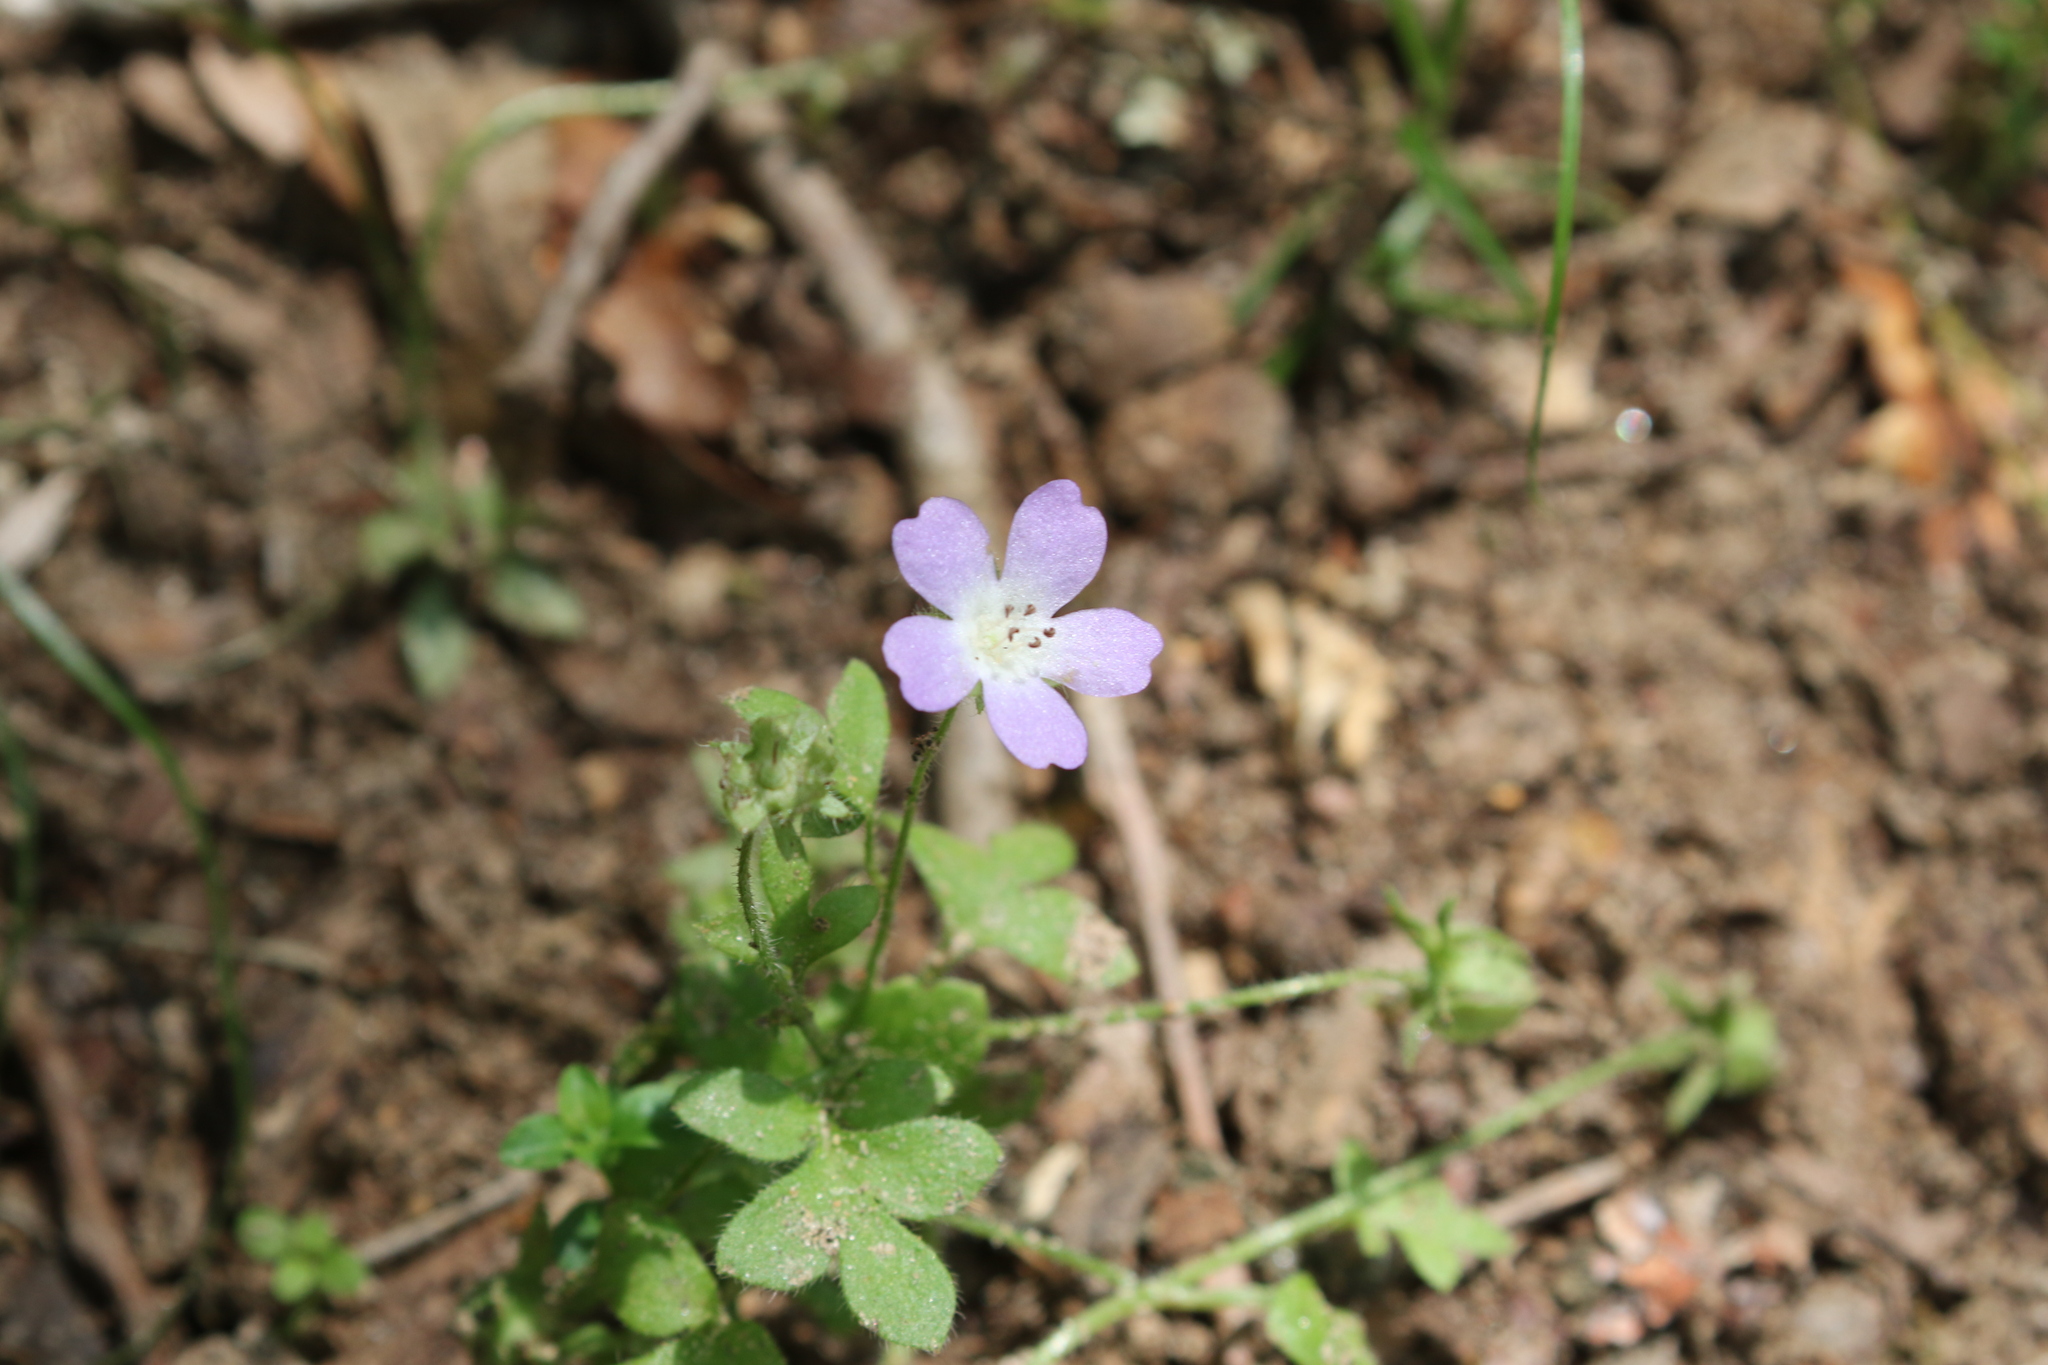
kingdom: Plantae
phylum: Tracheophyta
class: Magnoliopsida
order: Boraginales
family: Hydrophyllaceae
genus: Nemophila
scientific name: Nemophila phacelioides
